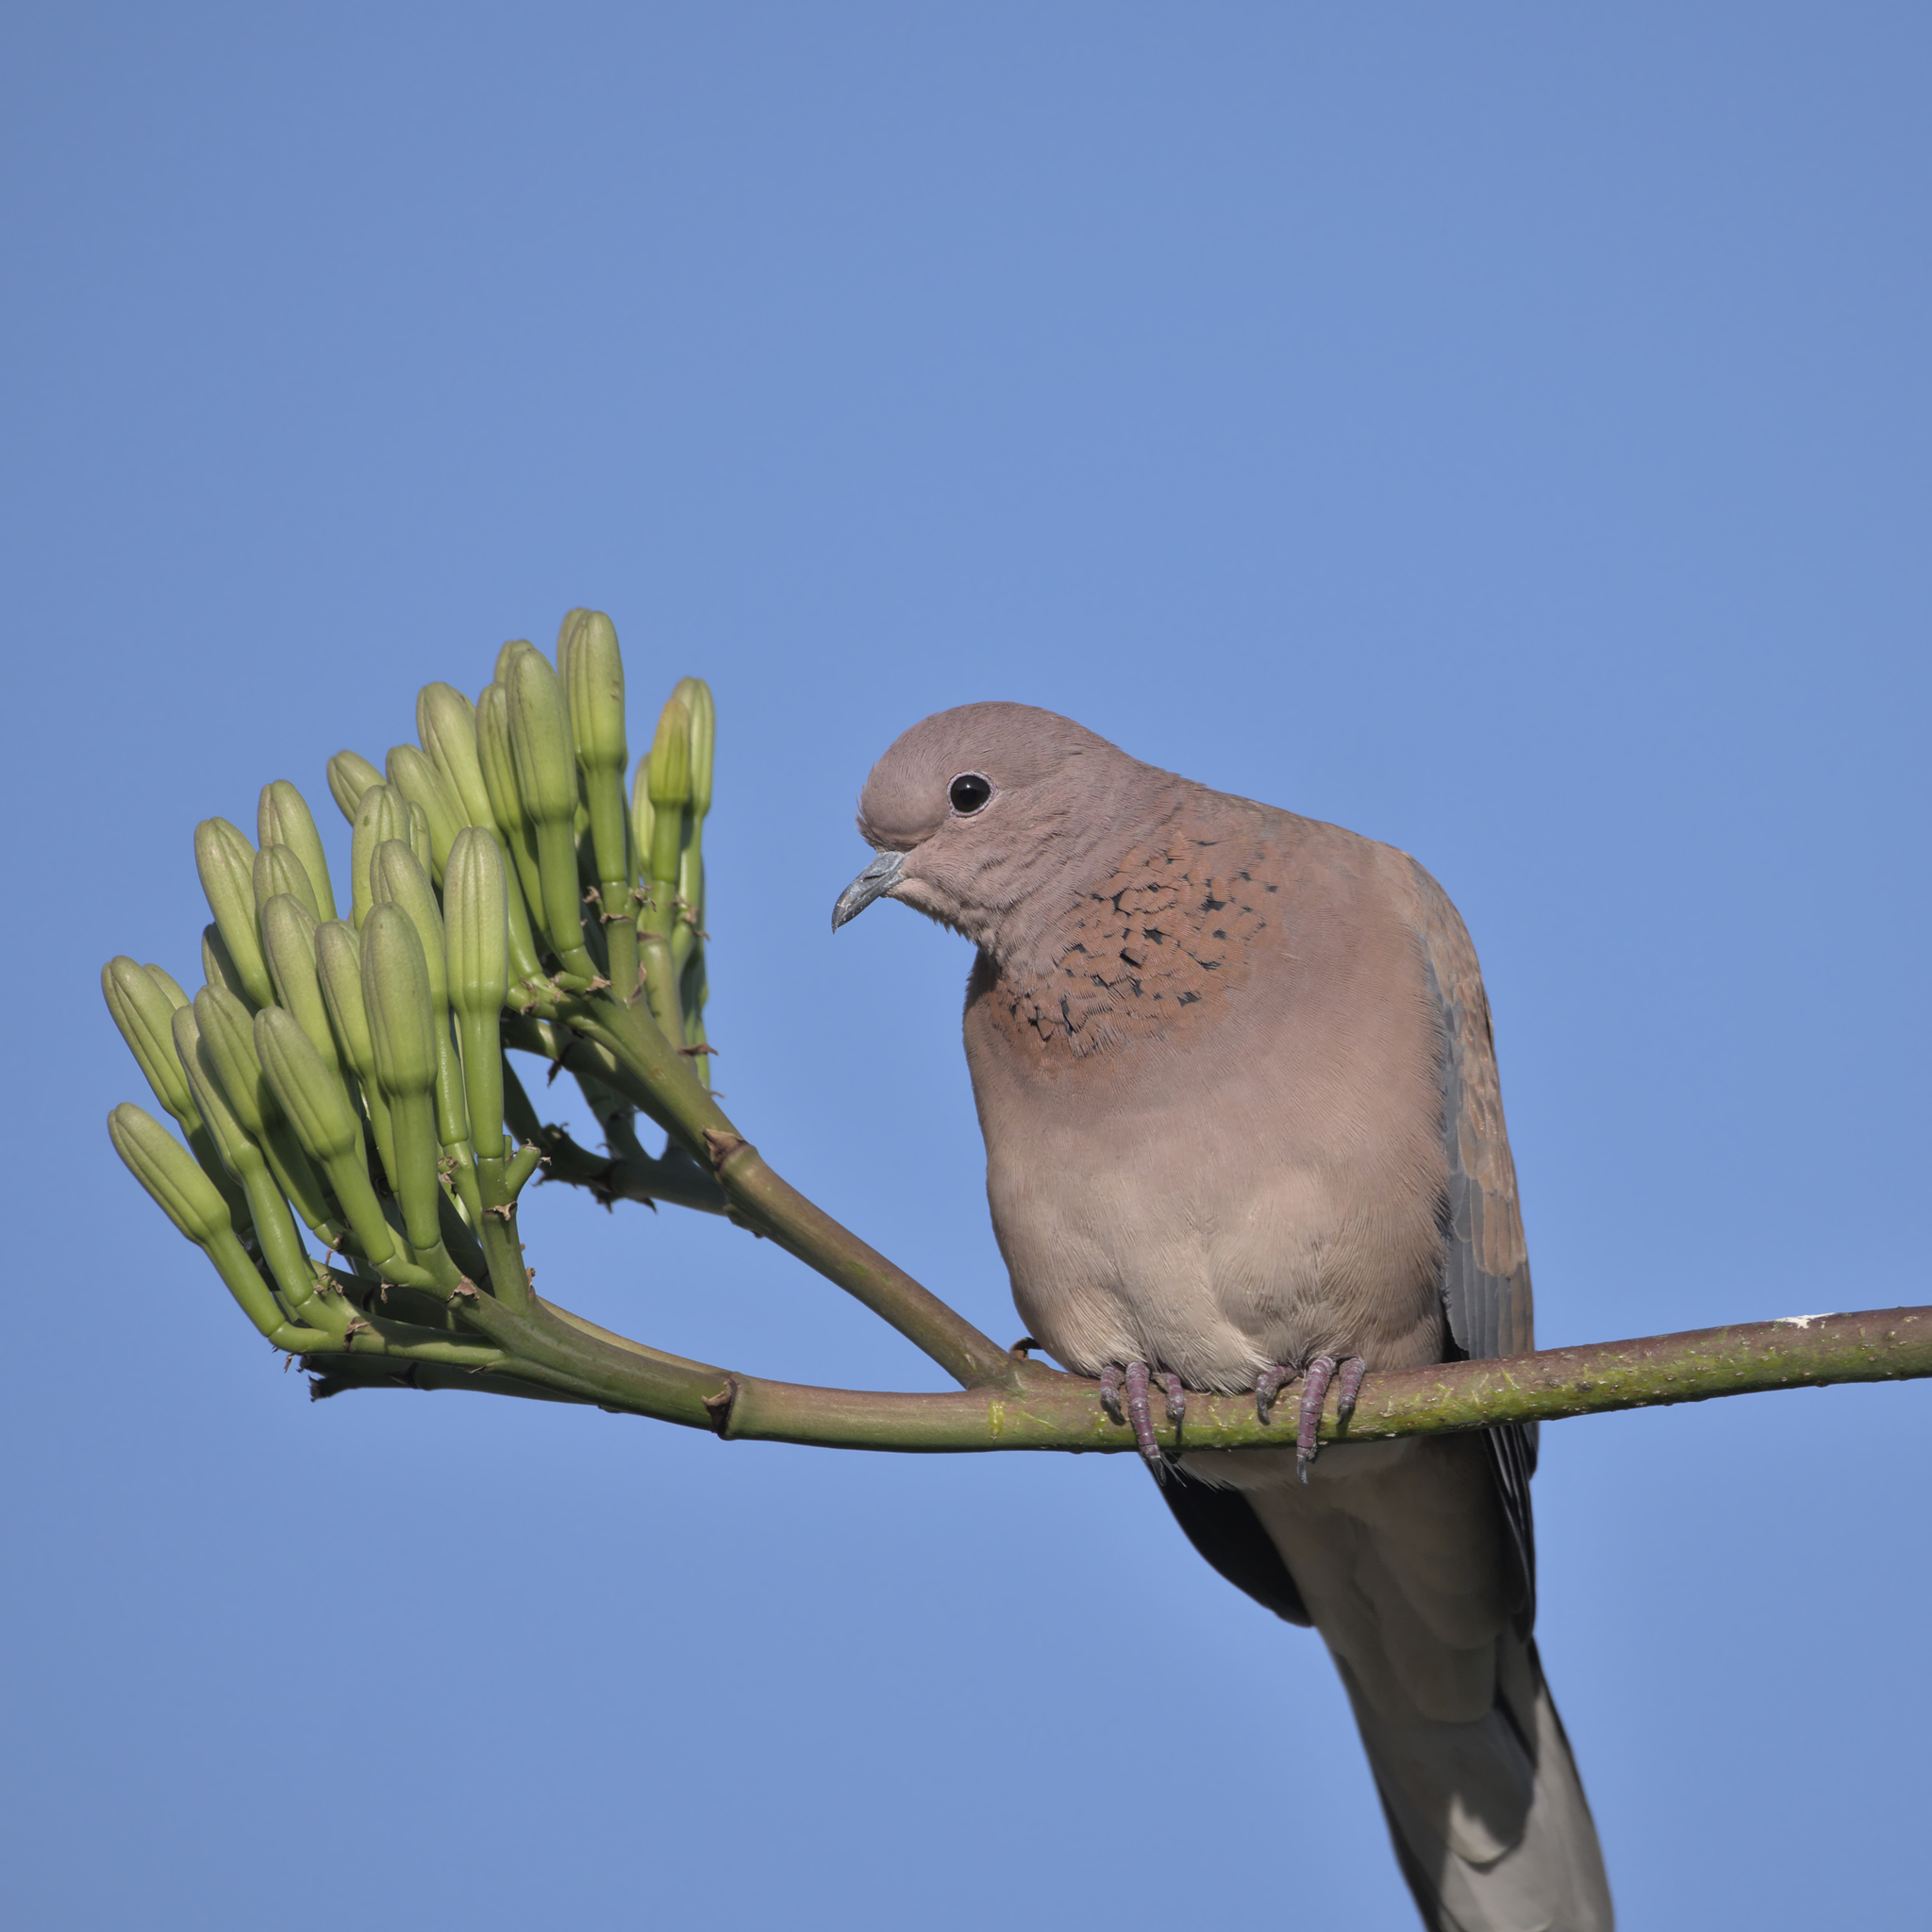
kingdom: Animalia
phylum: Chordata
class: Aves
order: Columbiformes
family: Columbidae
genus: Spilopelia
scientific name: Spilopelia senegalensis
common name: Laughing dove
